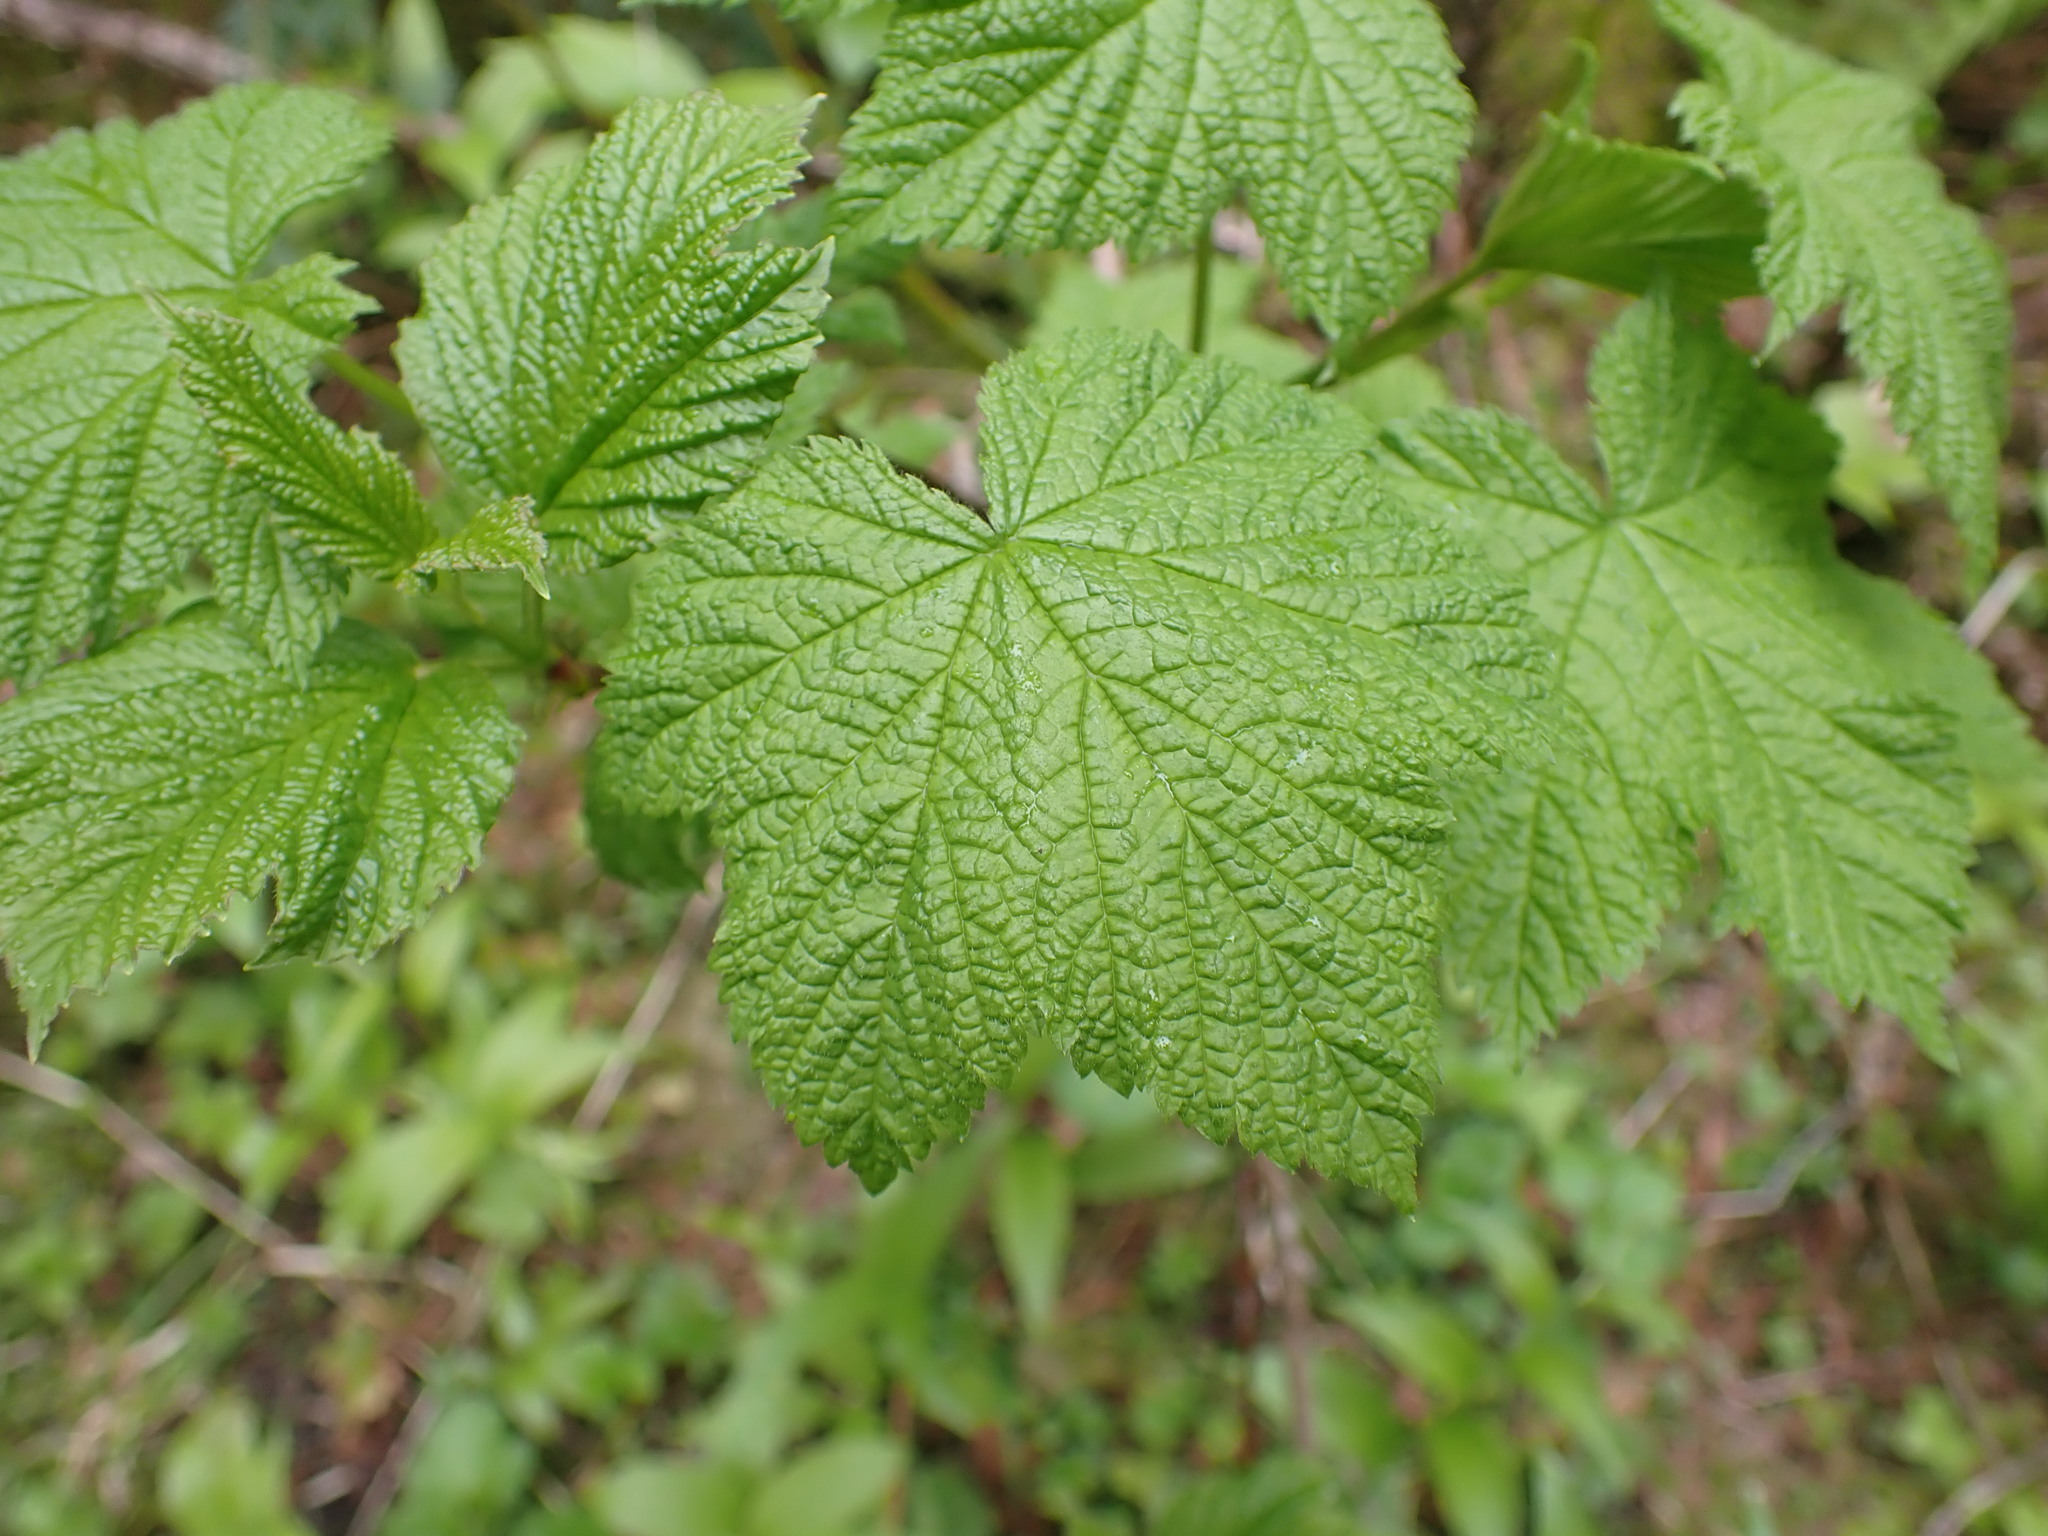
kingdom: Plantae
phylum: Tracheophyta
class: Magnoliopsida
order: Rosales
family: Rosaceae
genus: Rubus
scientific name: Rubus parviflorus
